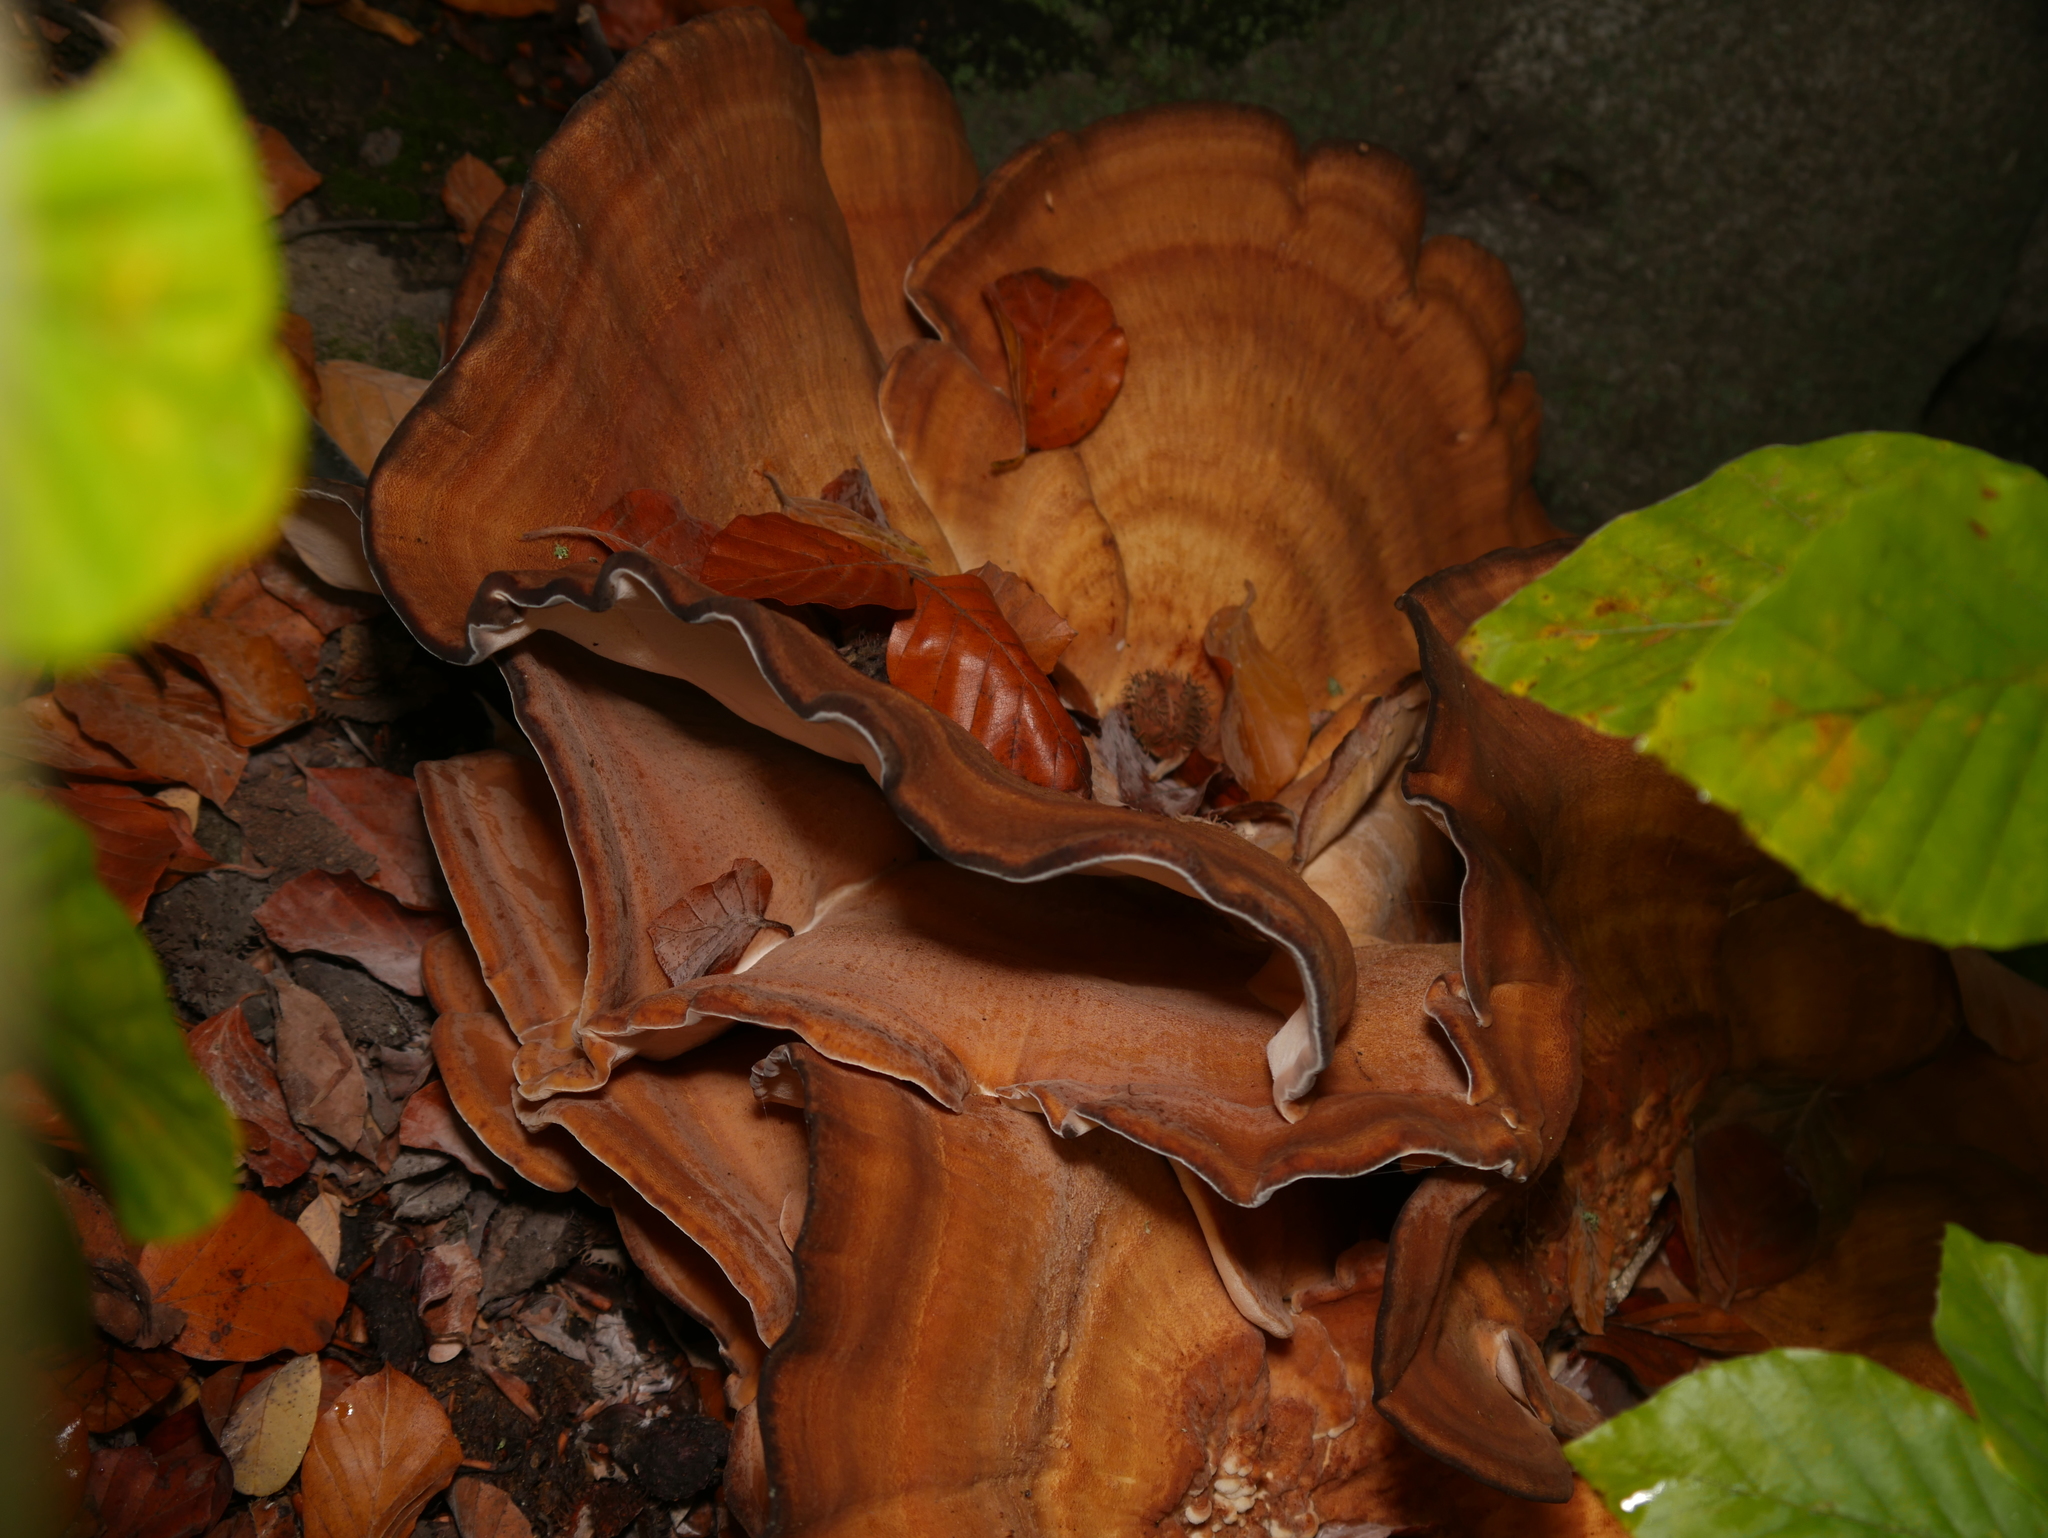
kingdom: Fungi
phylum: Basidiomycota
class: Agaricomycetes
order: Polyporales
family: Meripilaceae
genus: Meripilus
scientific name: Meripilus giganteus
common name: Giant polypore
